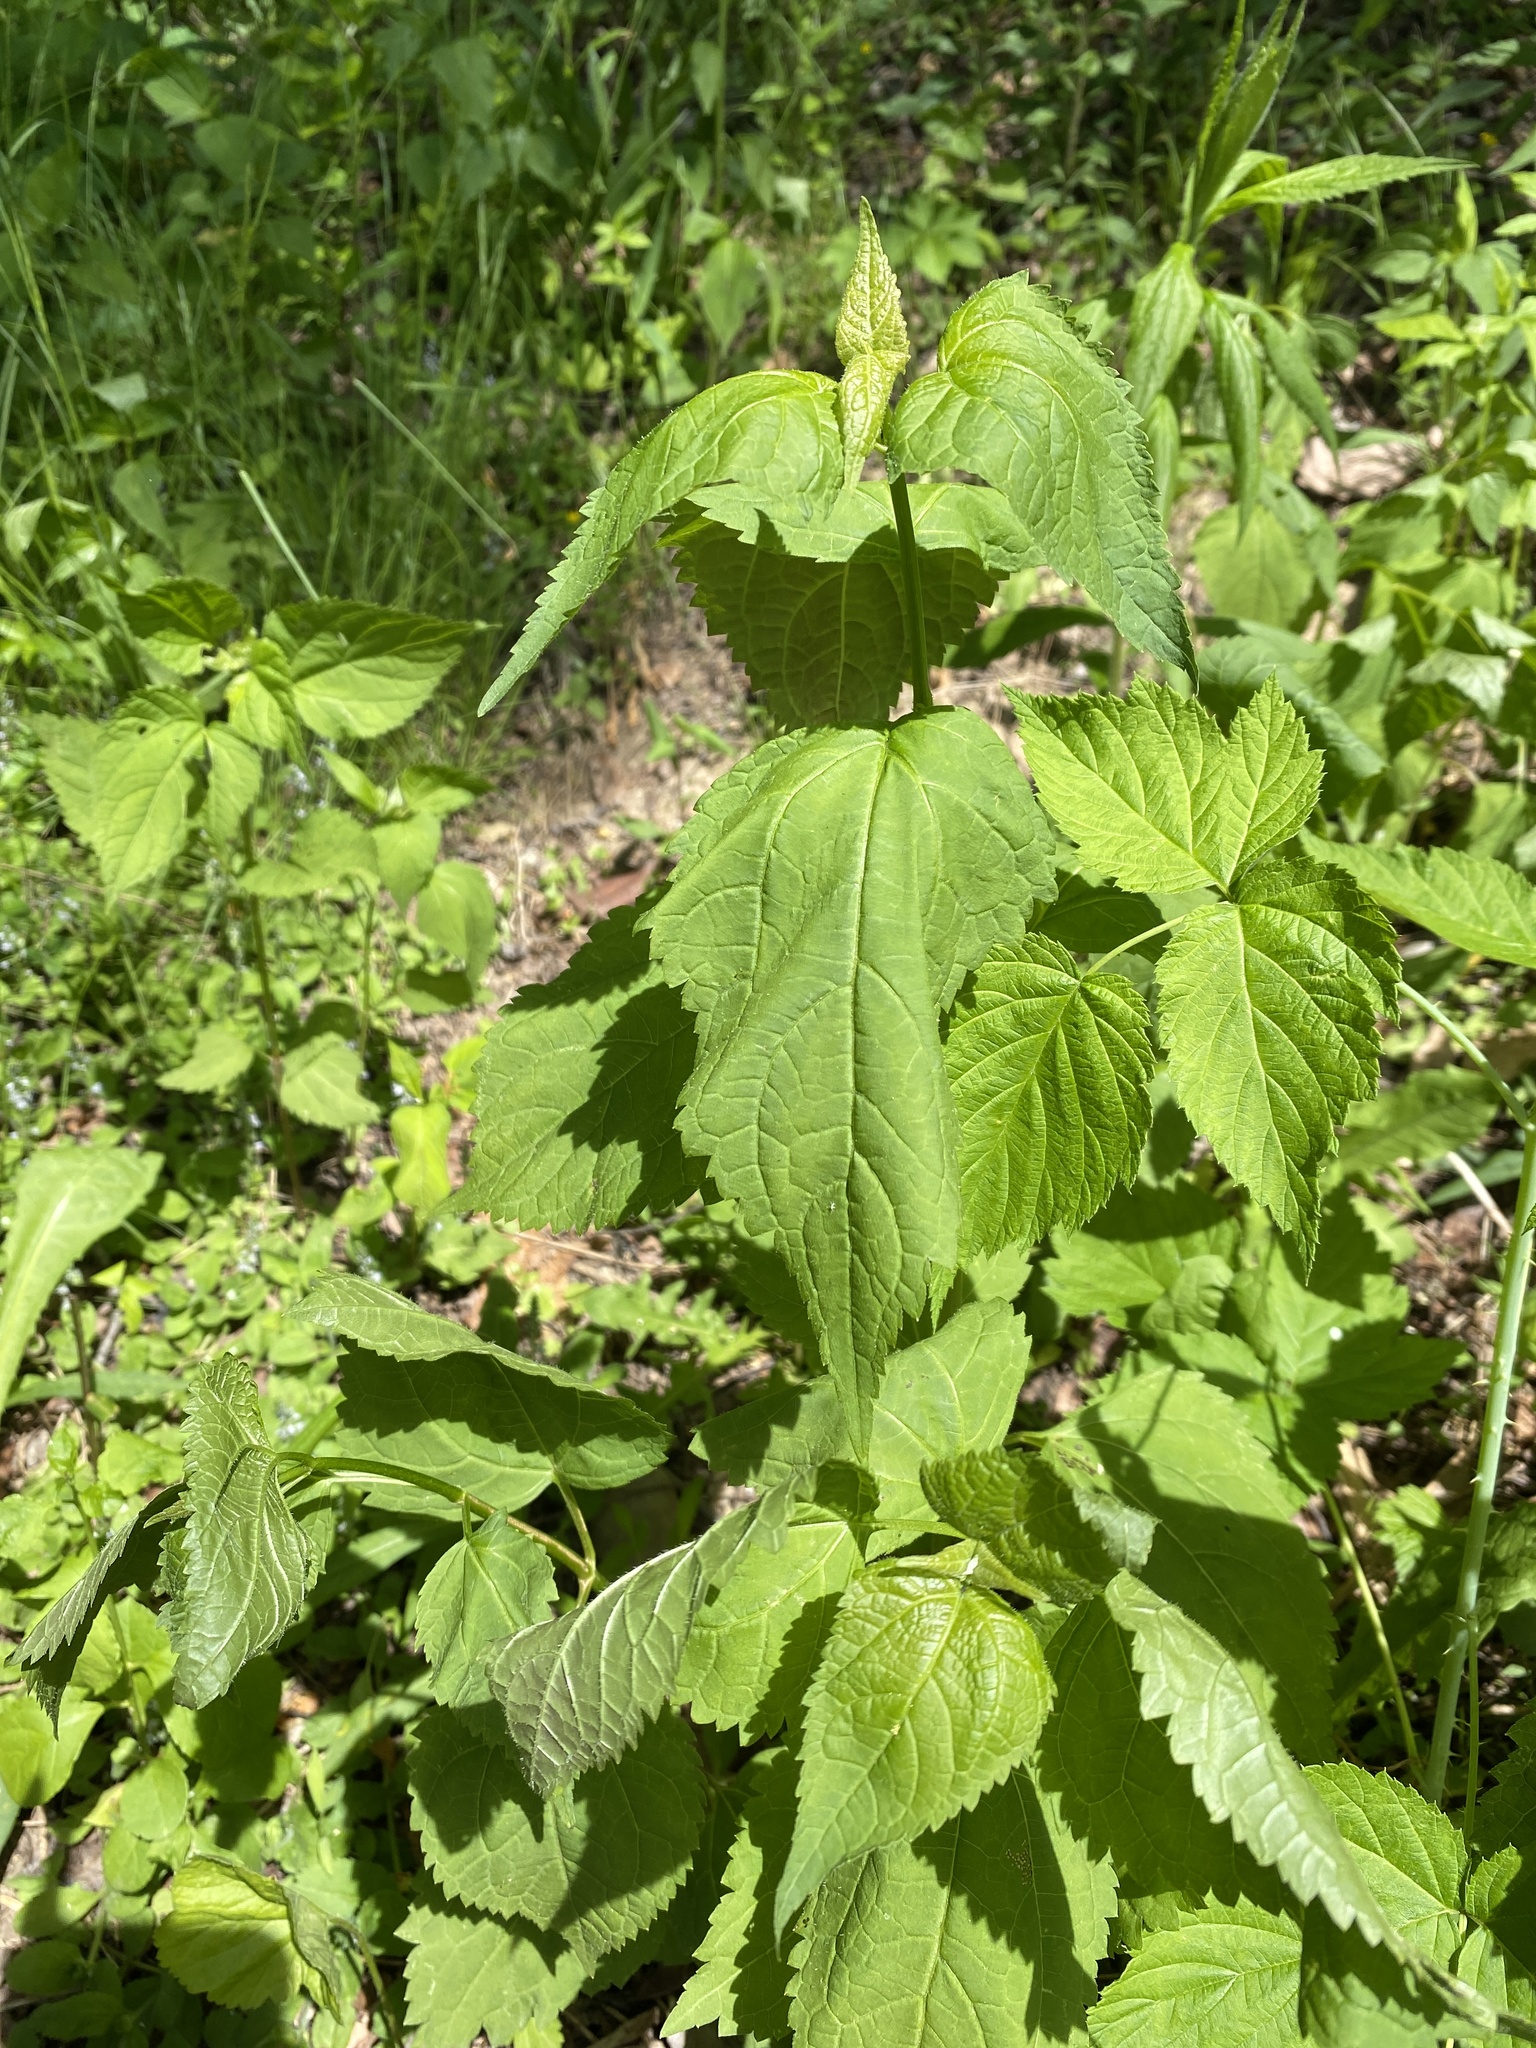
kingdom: Plantae
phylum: Tracheophyta
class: Magnoliopsida
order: Asterales
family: Asteraceae
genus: Ageratina
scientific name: Ageratina altissima
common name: White snakeroot
